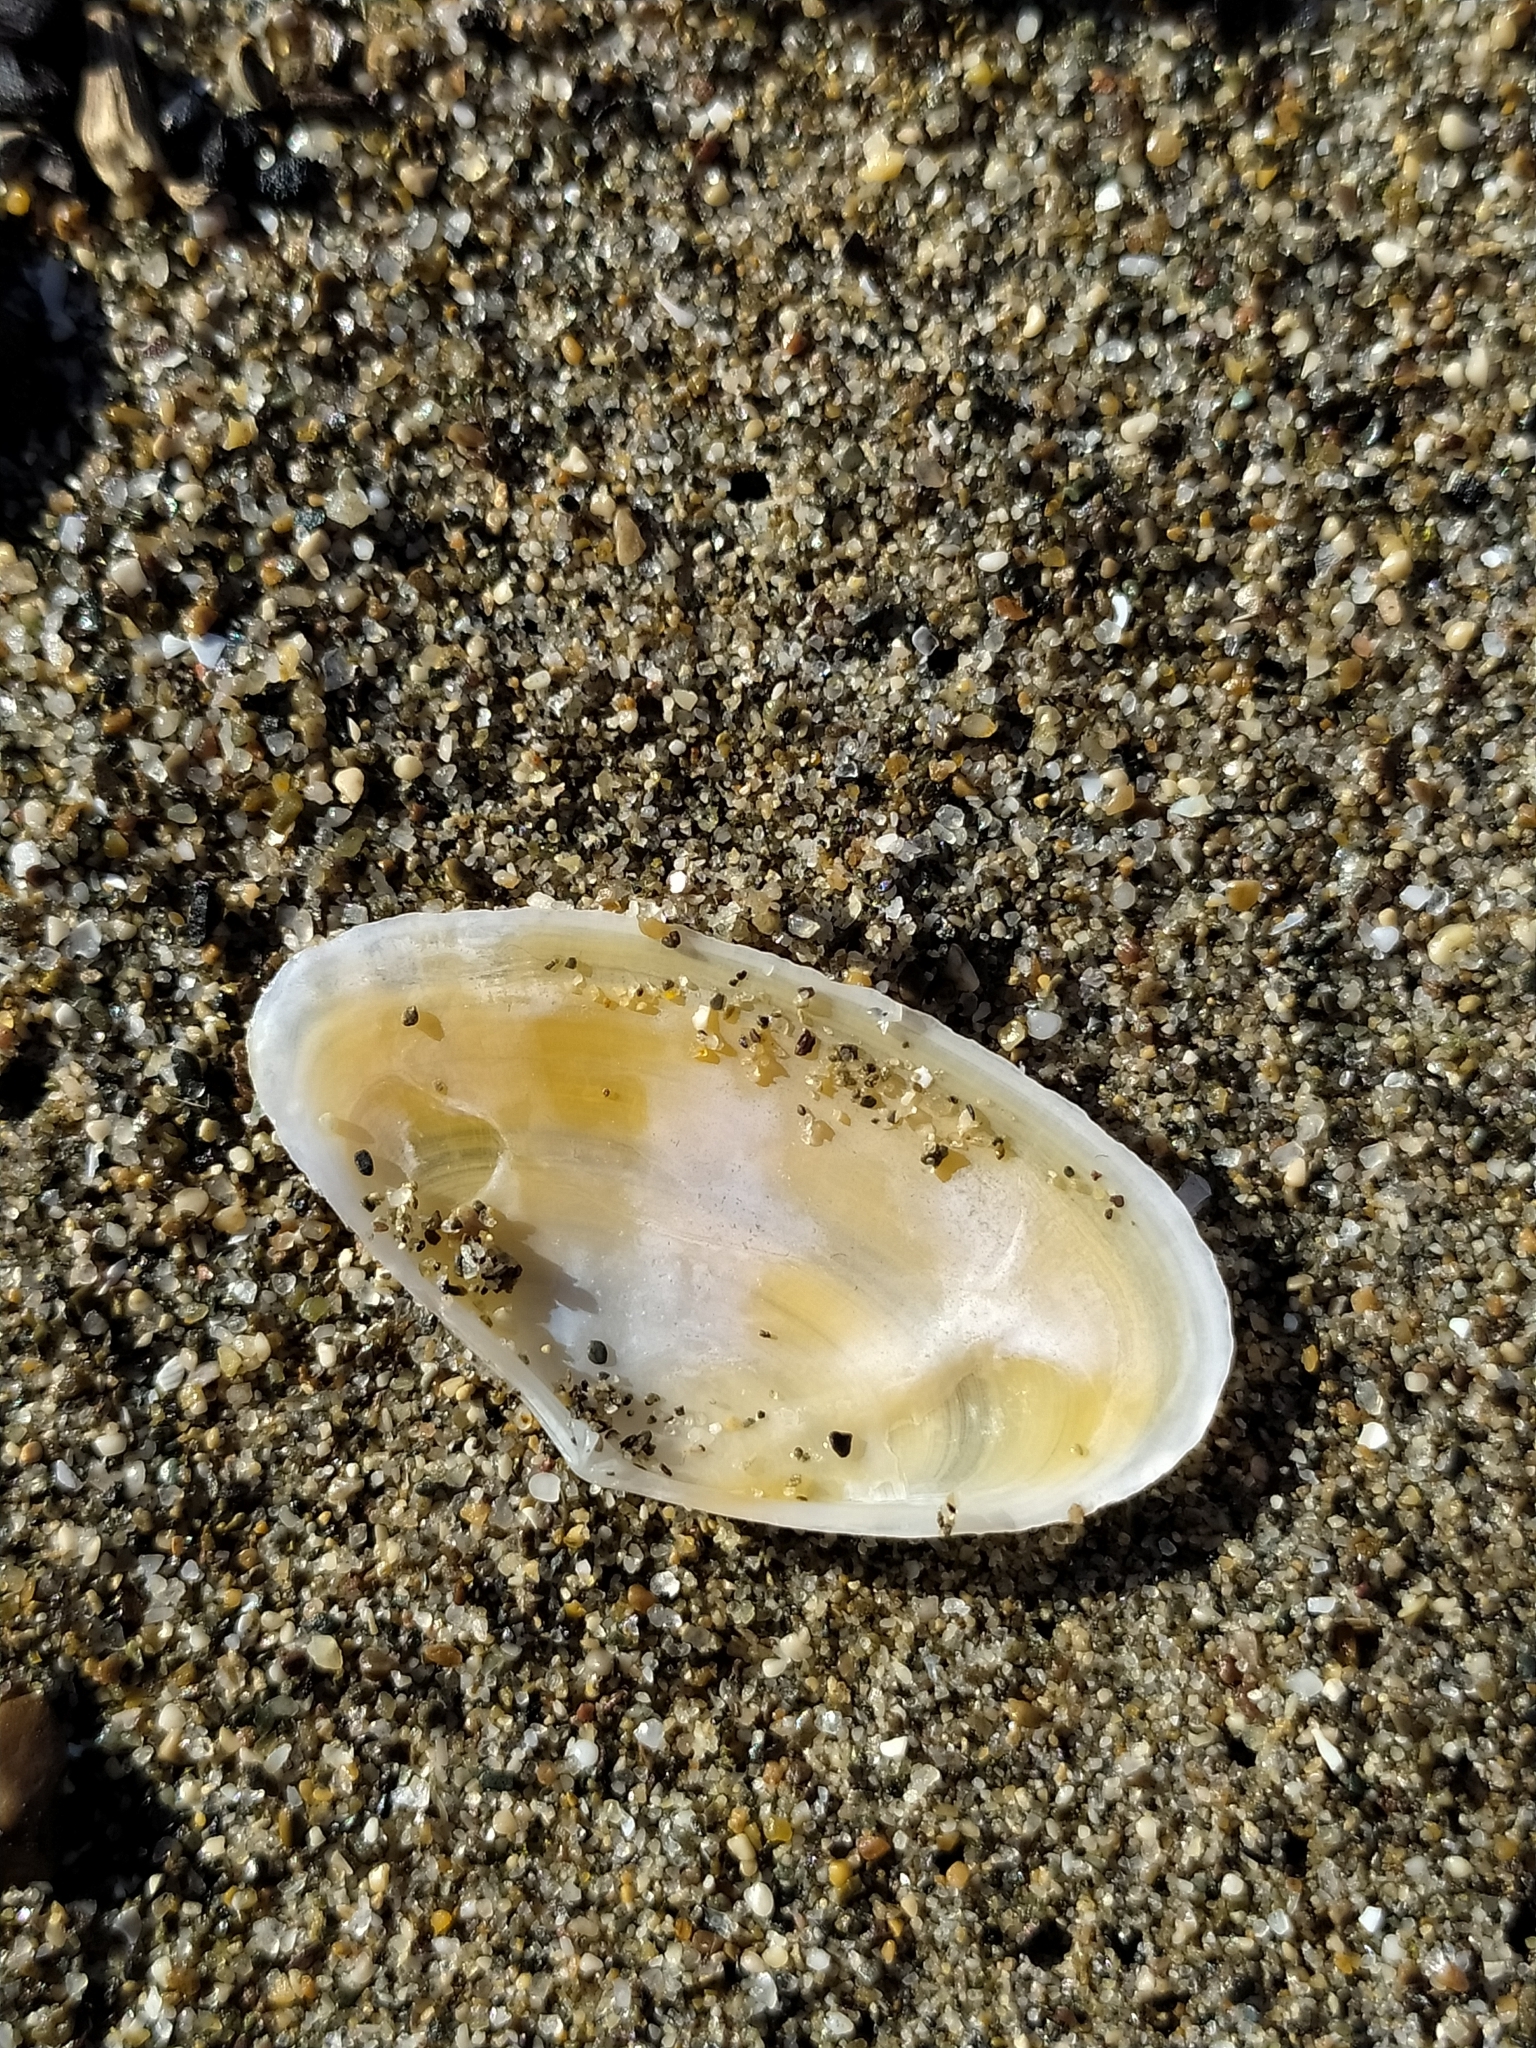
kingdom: Animalia
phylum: Mollusca
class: Bivalvia
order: Cardiida
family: Tellinidae
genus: Peronidia
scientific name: Peronidia albicans
